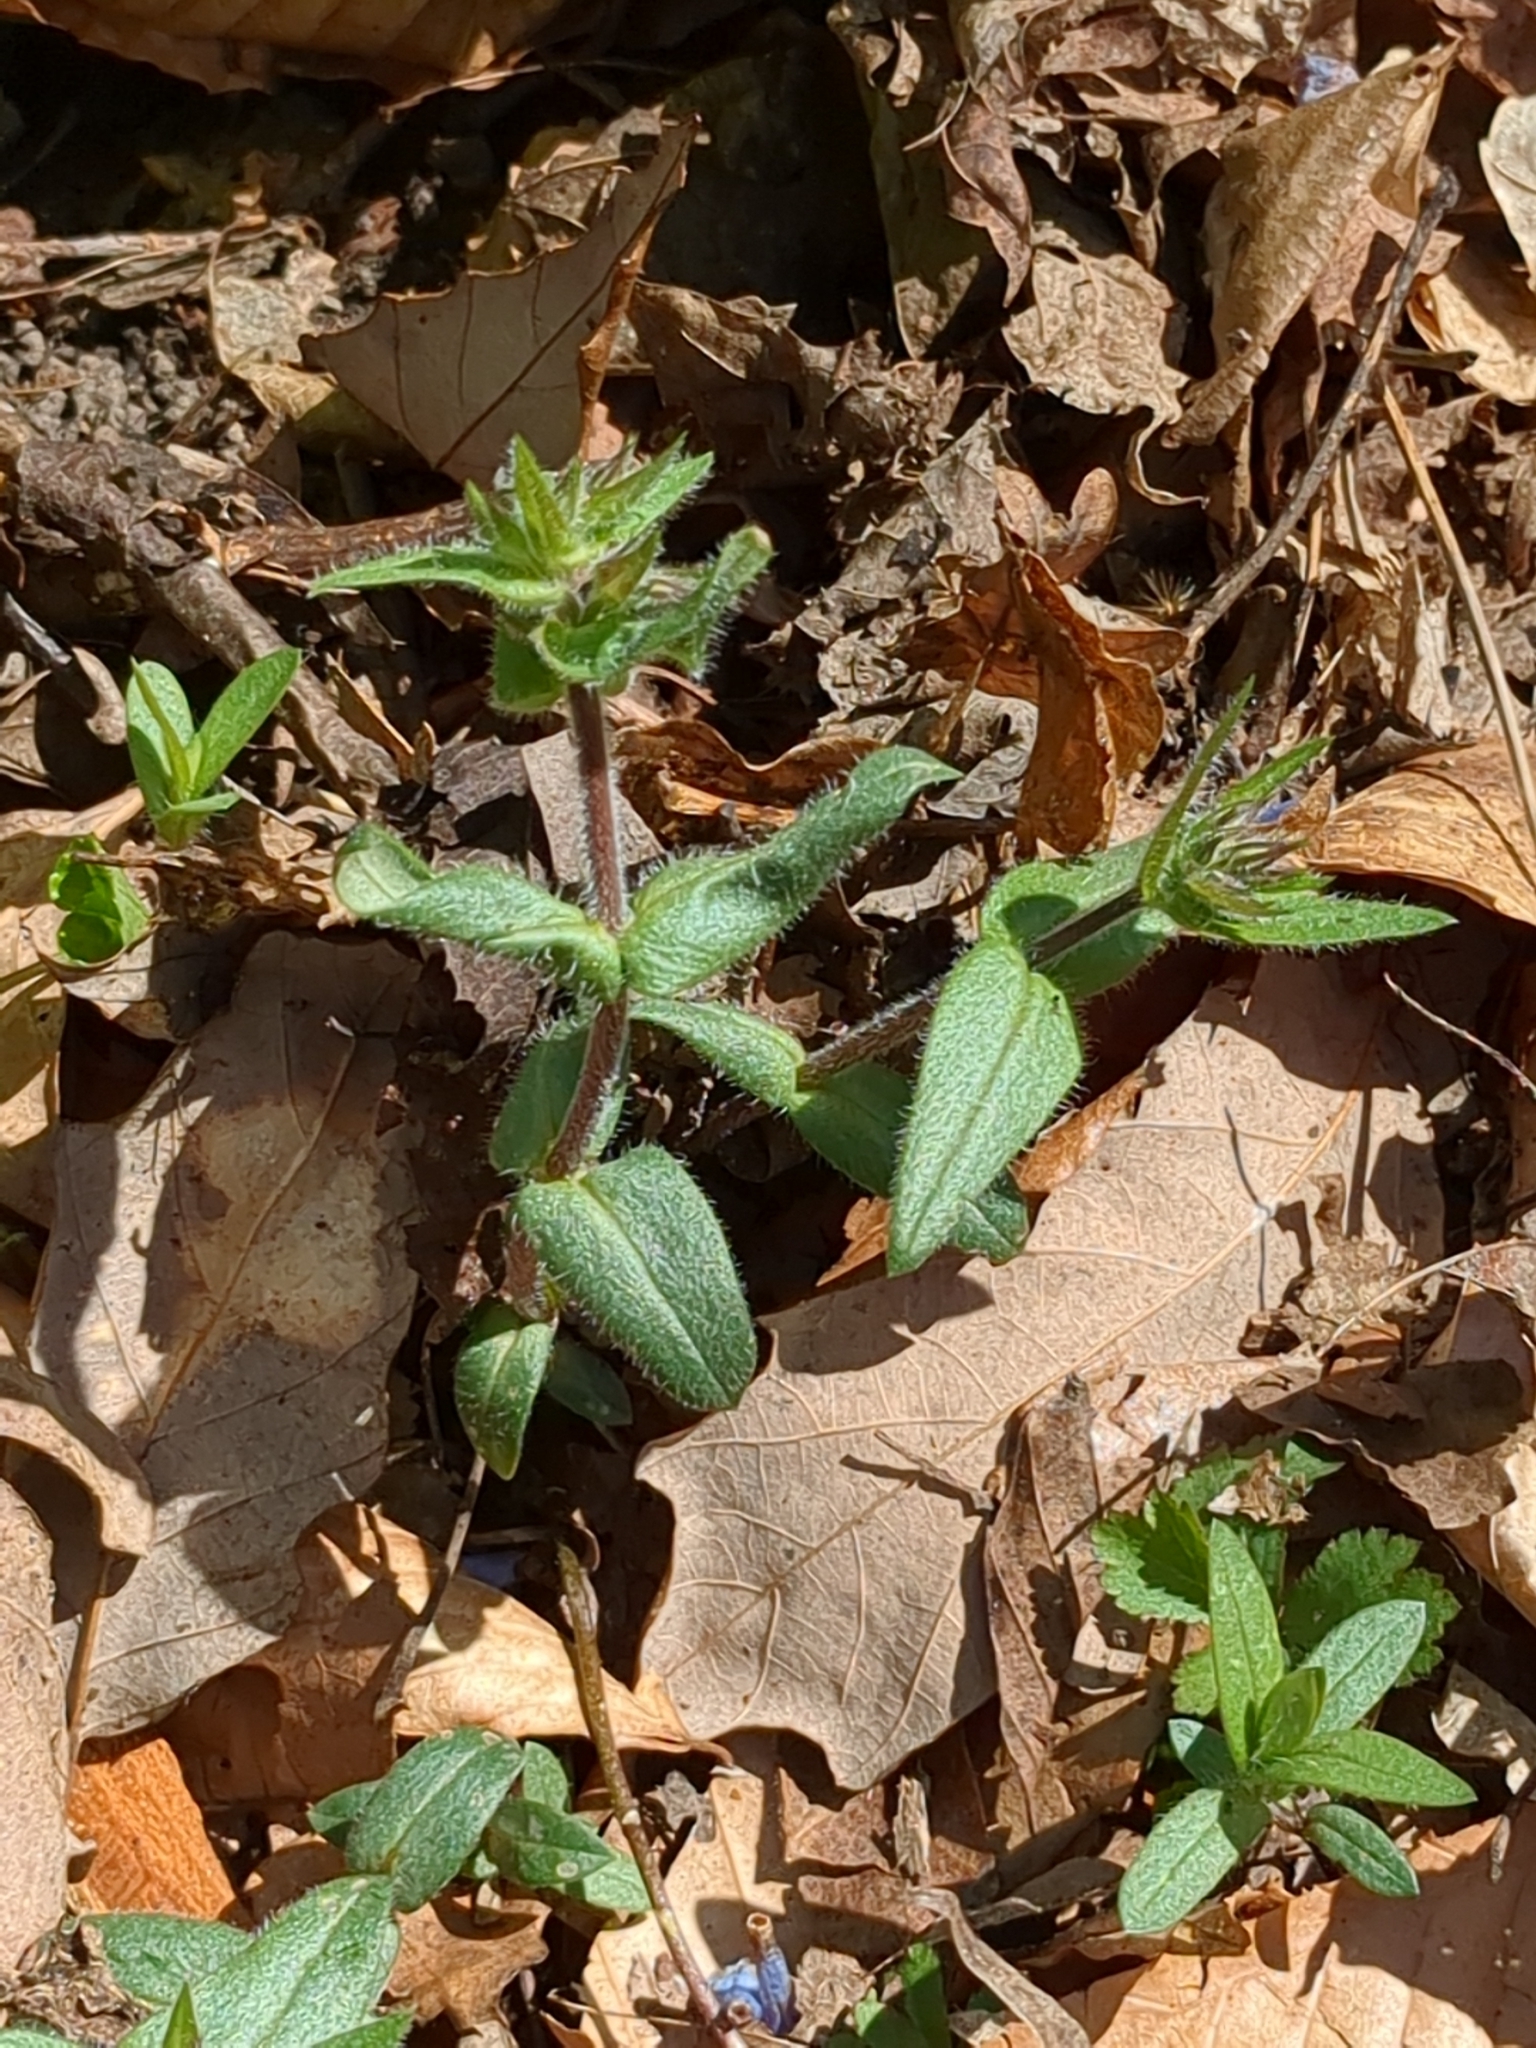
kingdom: Plantae
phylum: Tracheophyta
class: Magnoliopsida
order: Ericales
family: Polemoniaceae
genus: Phlox
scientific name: Phlox divaricata
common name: Blue phlox
